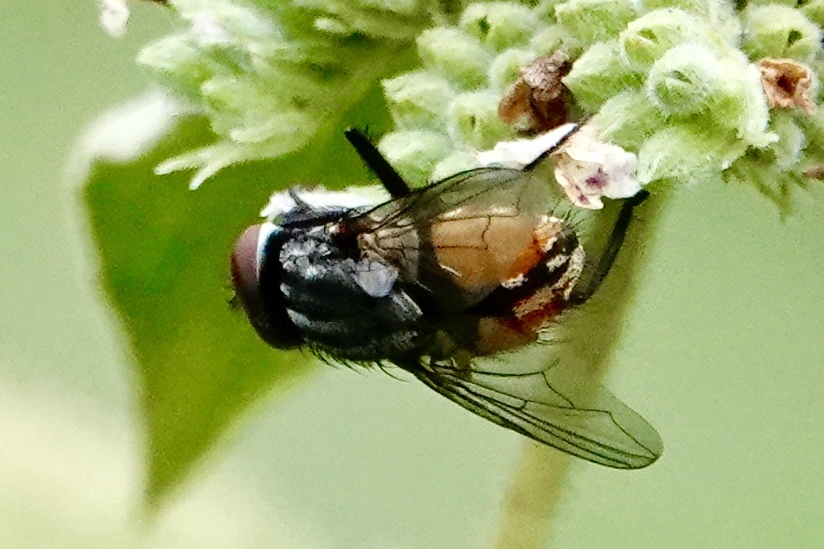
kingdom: Animalia
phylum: Arthropoda
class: Insecta
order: Diptera
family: Muscidae
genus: Musca
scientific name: Musca autumnalis
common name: Face fly
